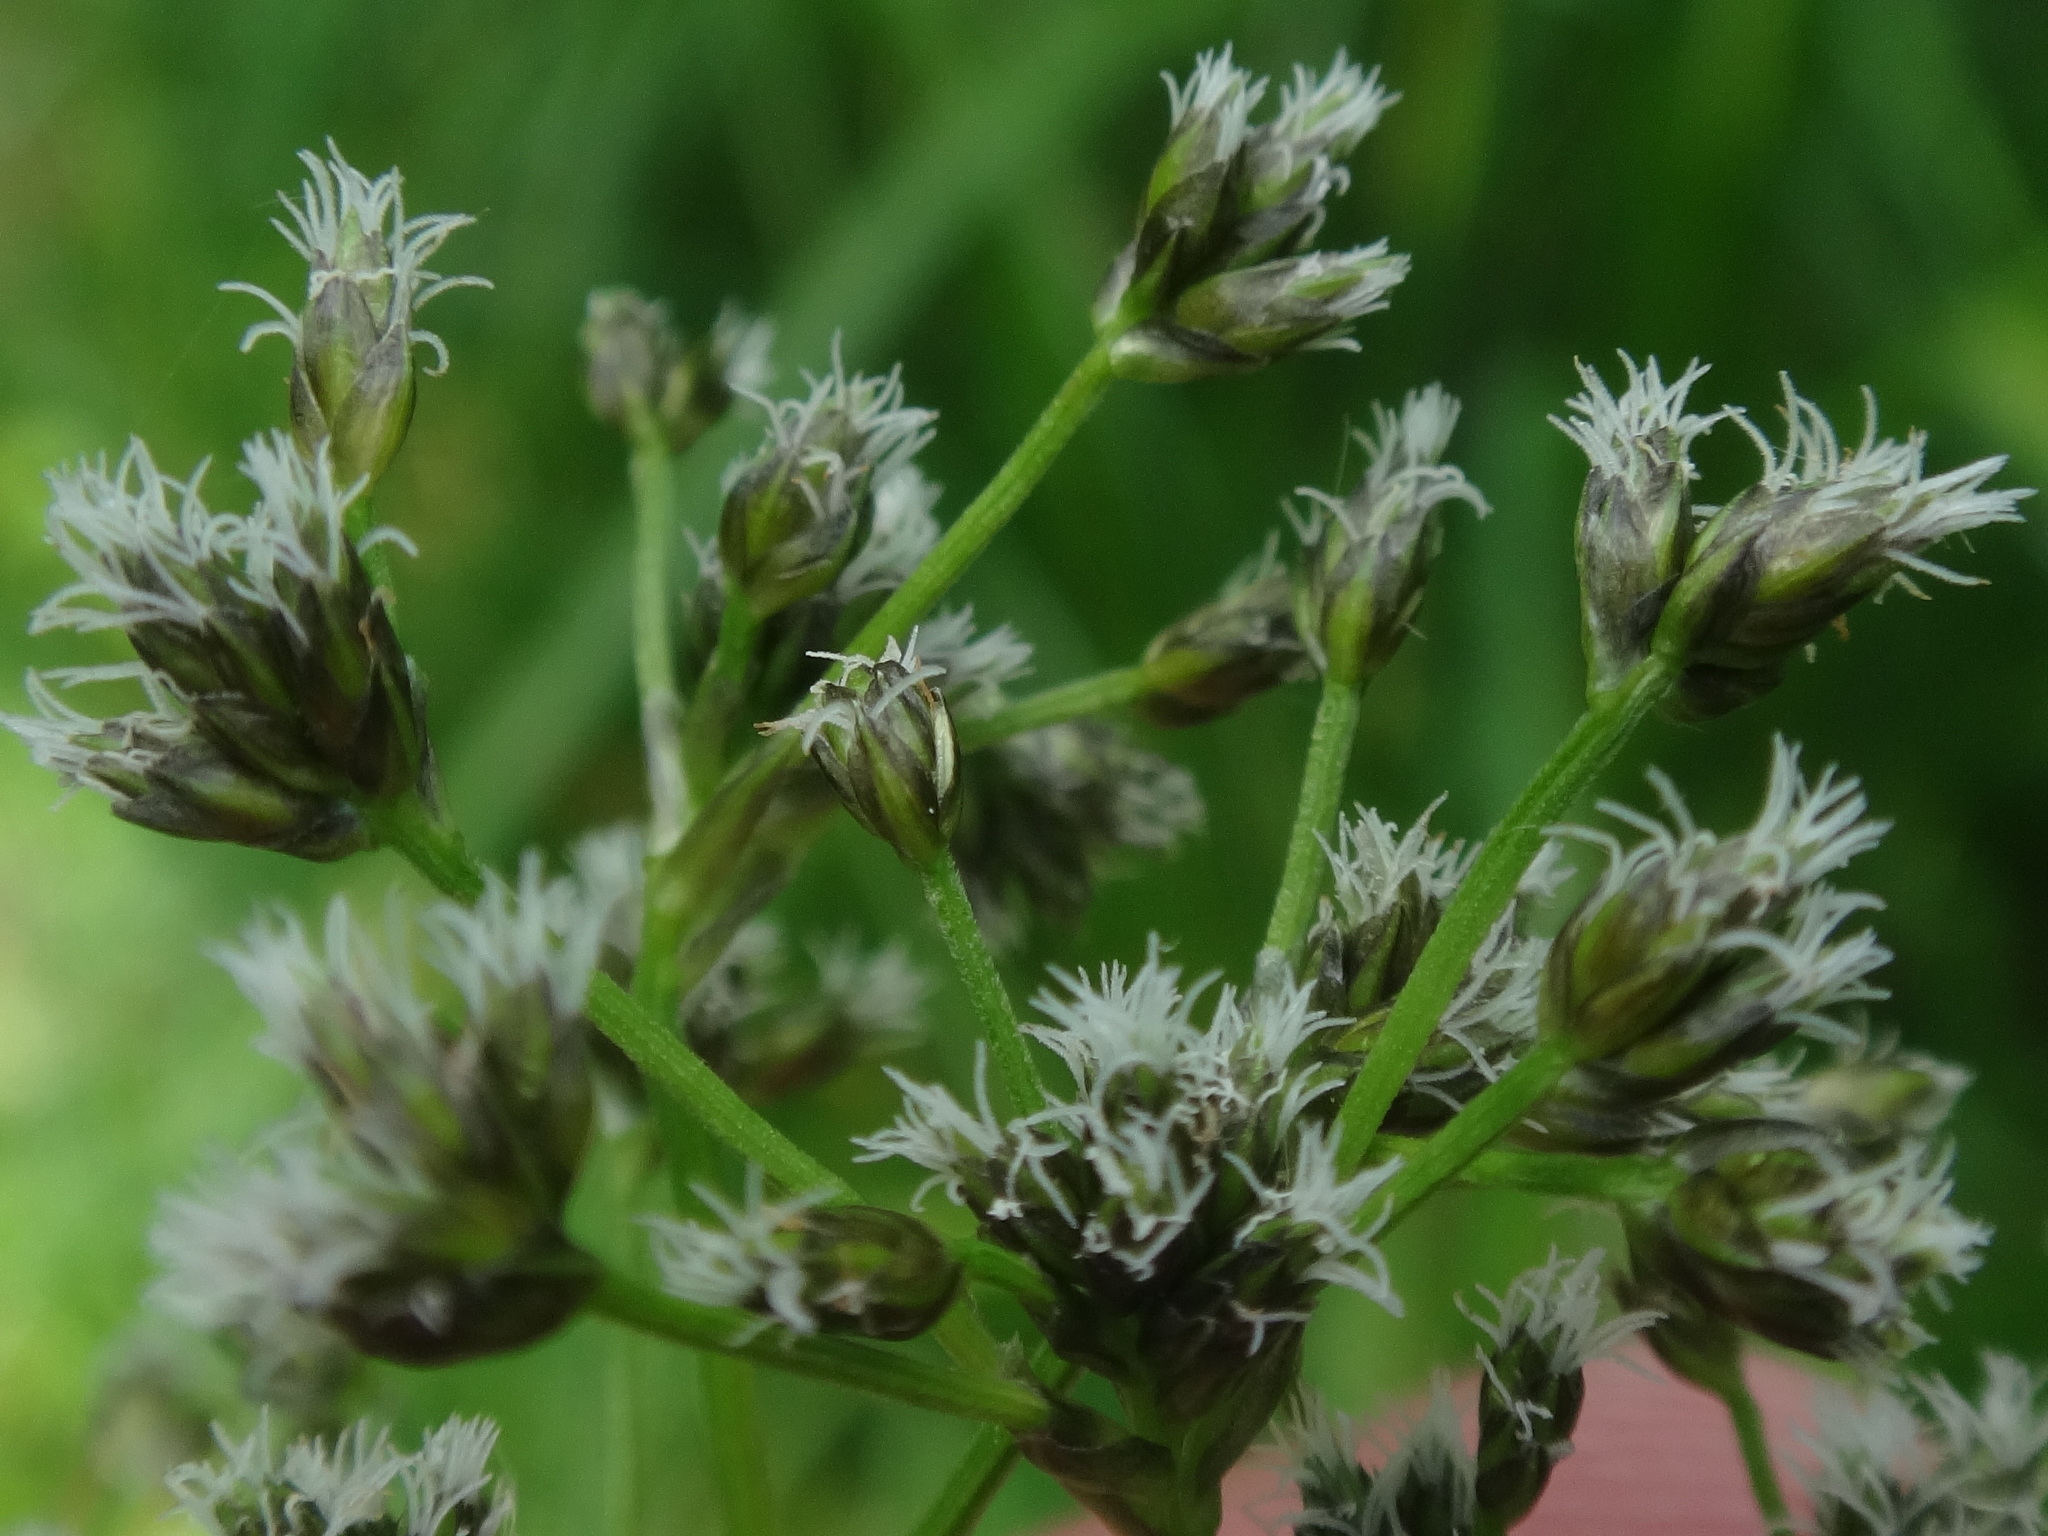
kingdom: Plantae
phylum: Tracheophyta
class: Liliopsida
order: Poales
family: Cyperaceae
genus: Scirpus
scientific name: Scirpus sylvaticus
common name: Wood club-rush
